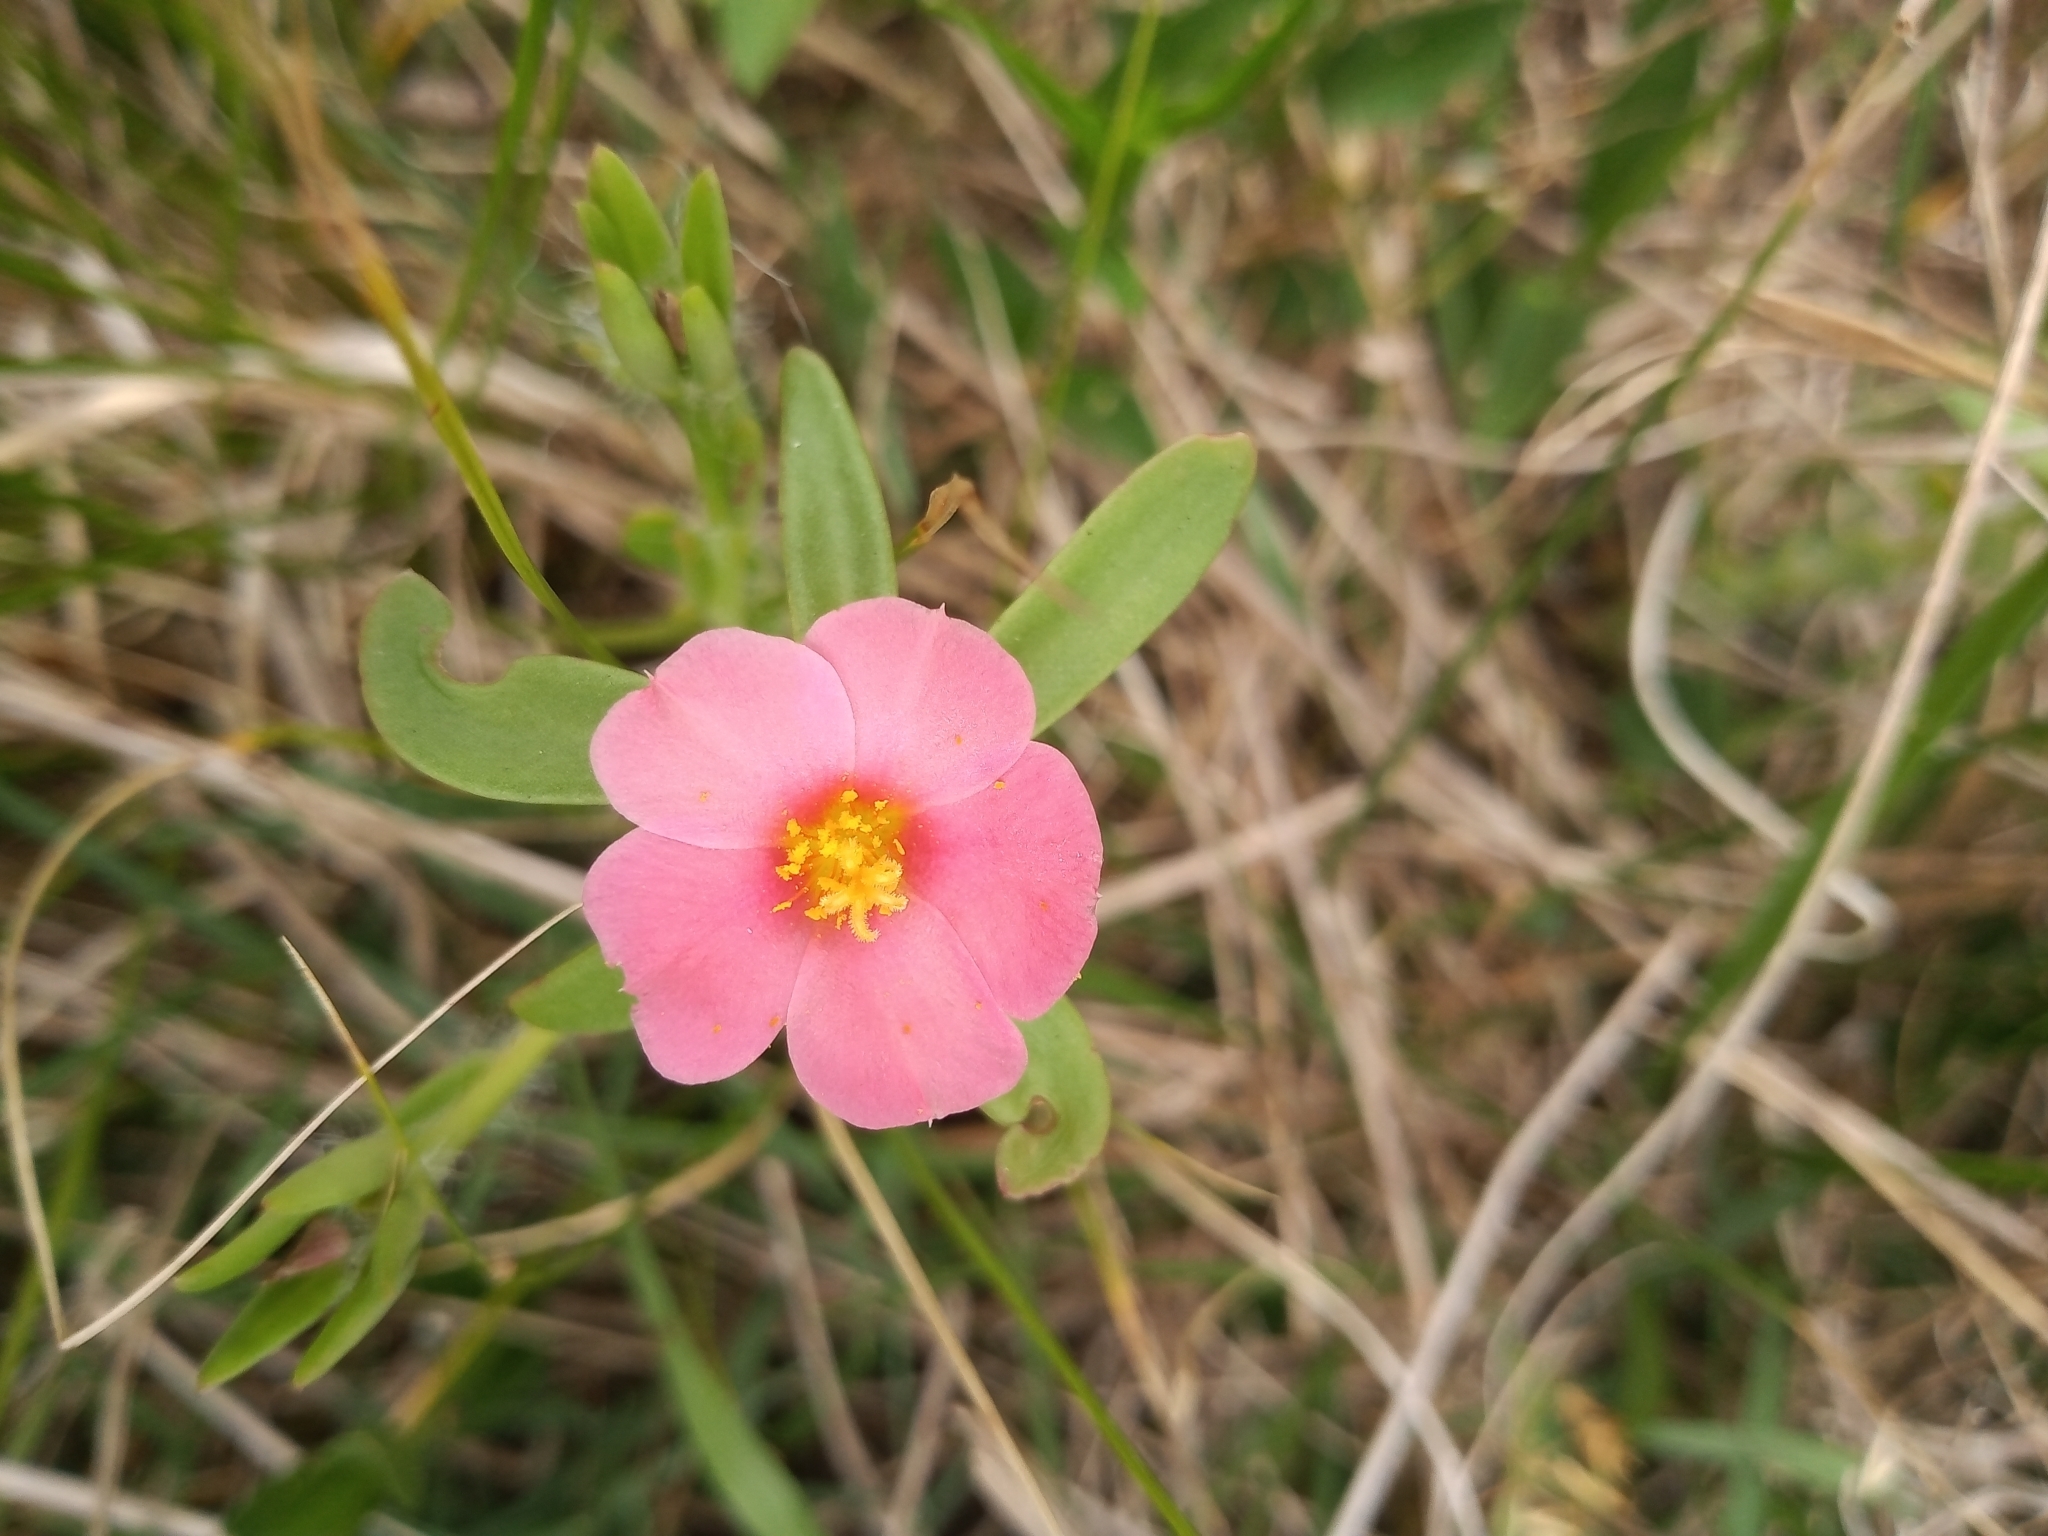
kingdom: Plantae
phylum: Tracheophyta
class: Magnoliopsida
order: Malvales
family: Malvaceae
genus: Krapovickasia
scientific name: Krapovickasia flavescens
